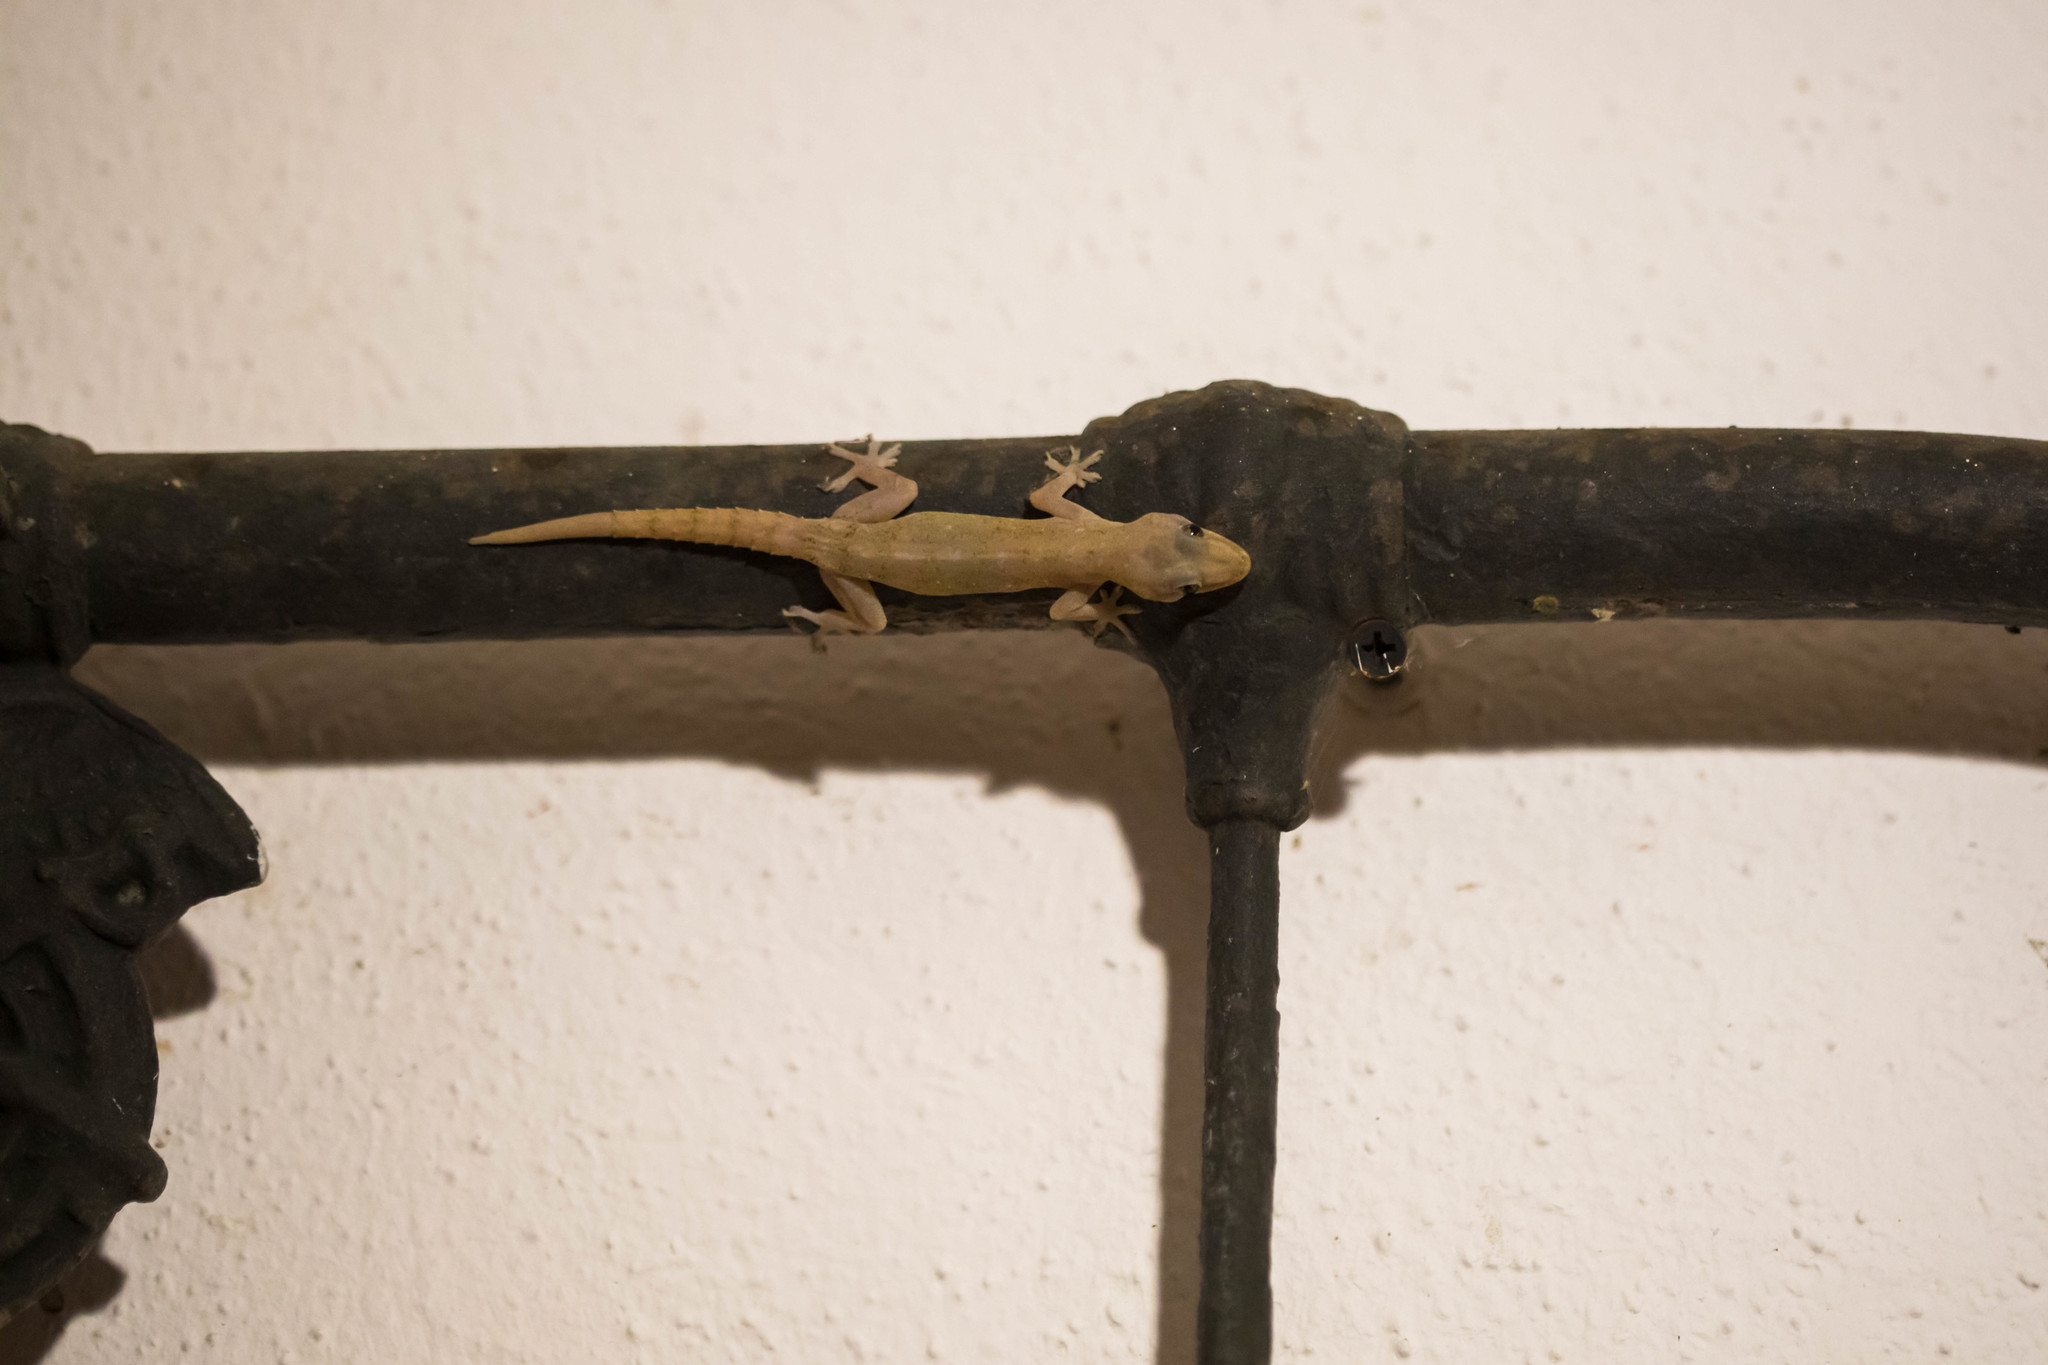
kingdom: Animalia
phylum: Chordata
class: Squamata
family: Gekkonidae
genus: Hemidactylus
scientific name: Hemidactylus frenatus
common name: Common house gecko
